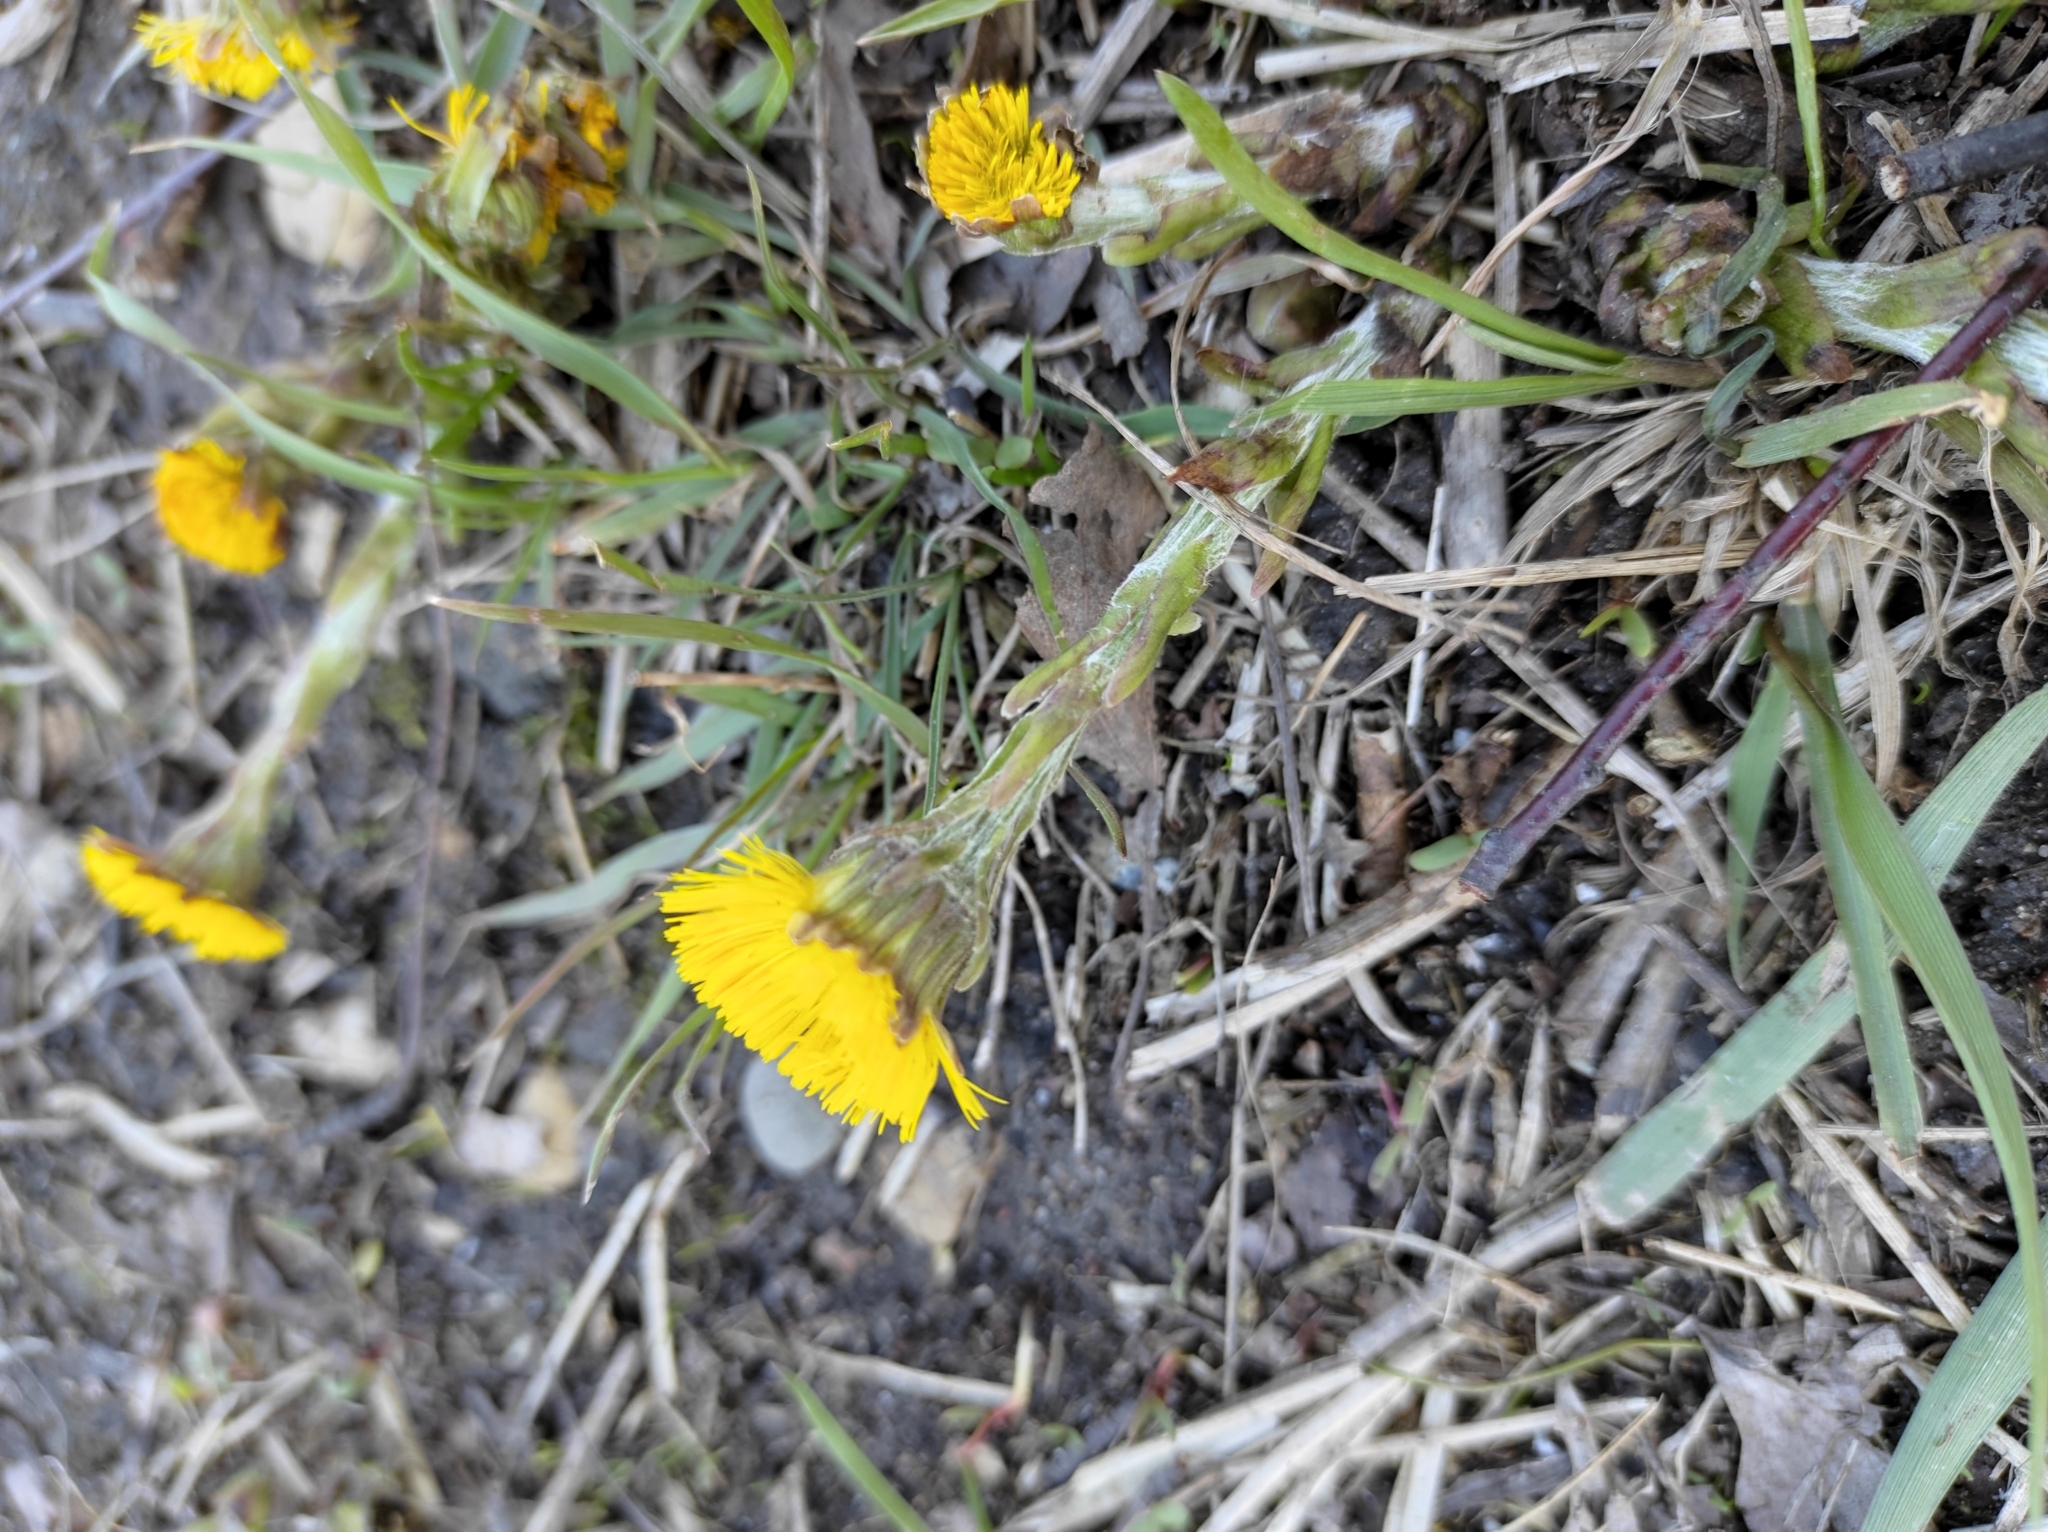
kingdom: Plantae
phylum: Tracheophyta
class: Magnoliopsida
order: Asterales
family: Asteraceae
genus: Tussilago
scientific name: Tussilago farfara
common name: Coltsfoot
